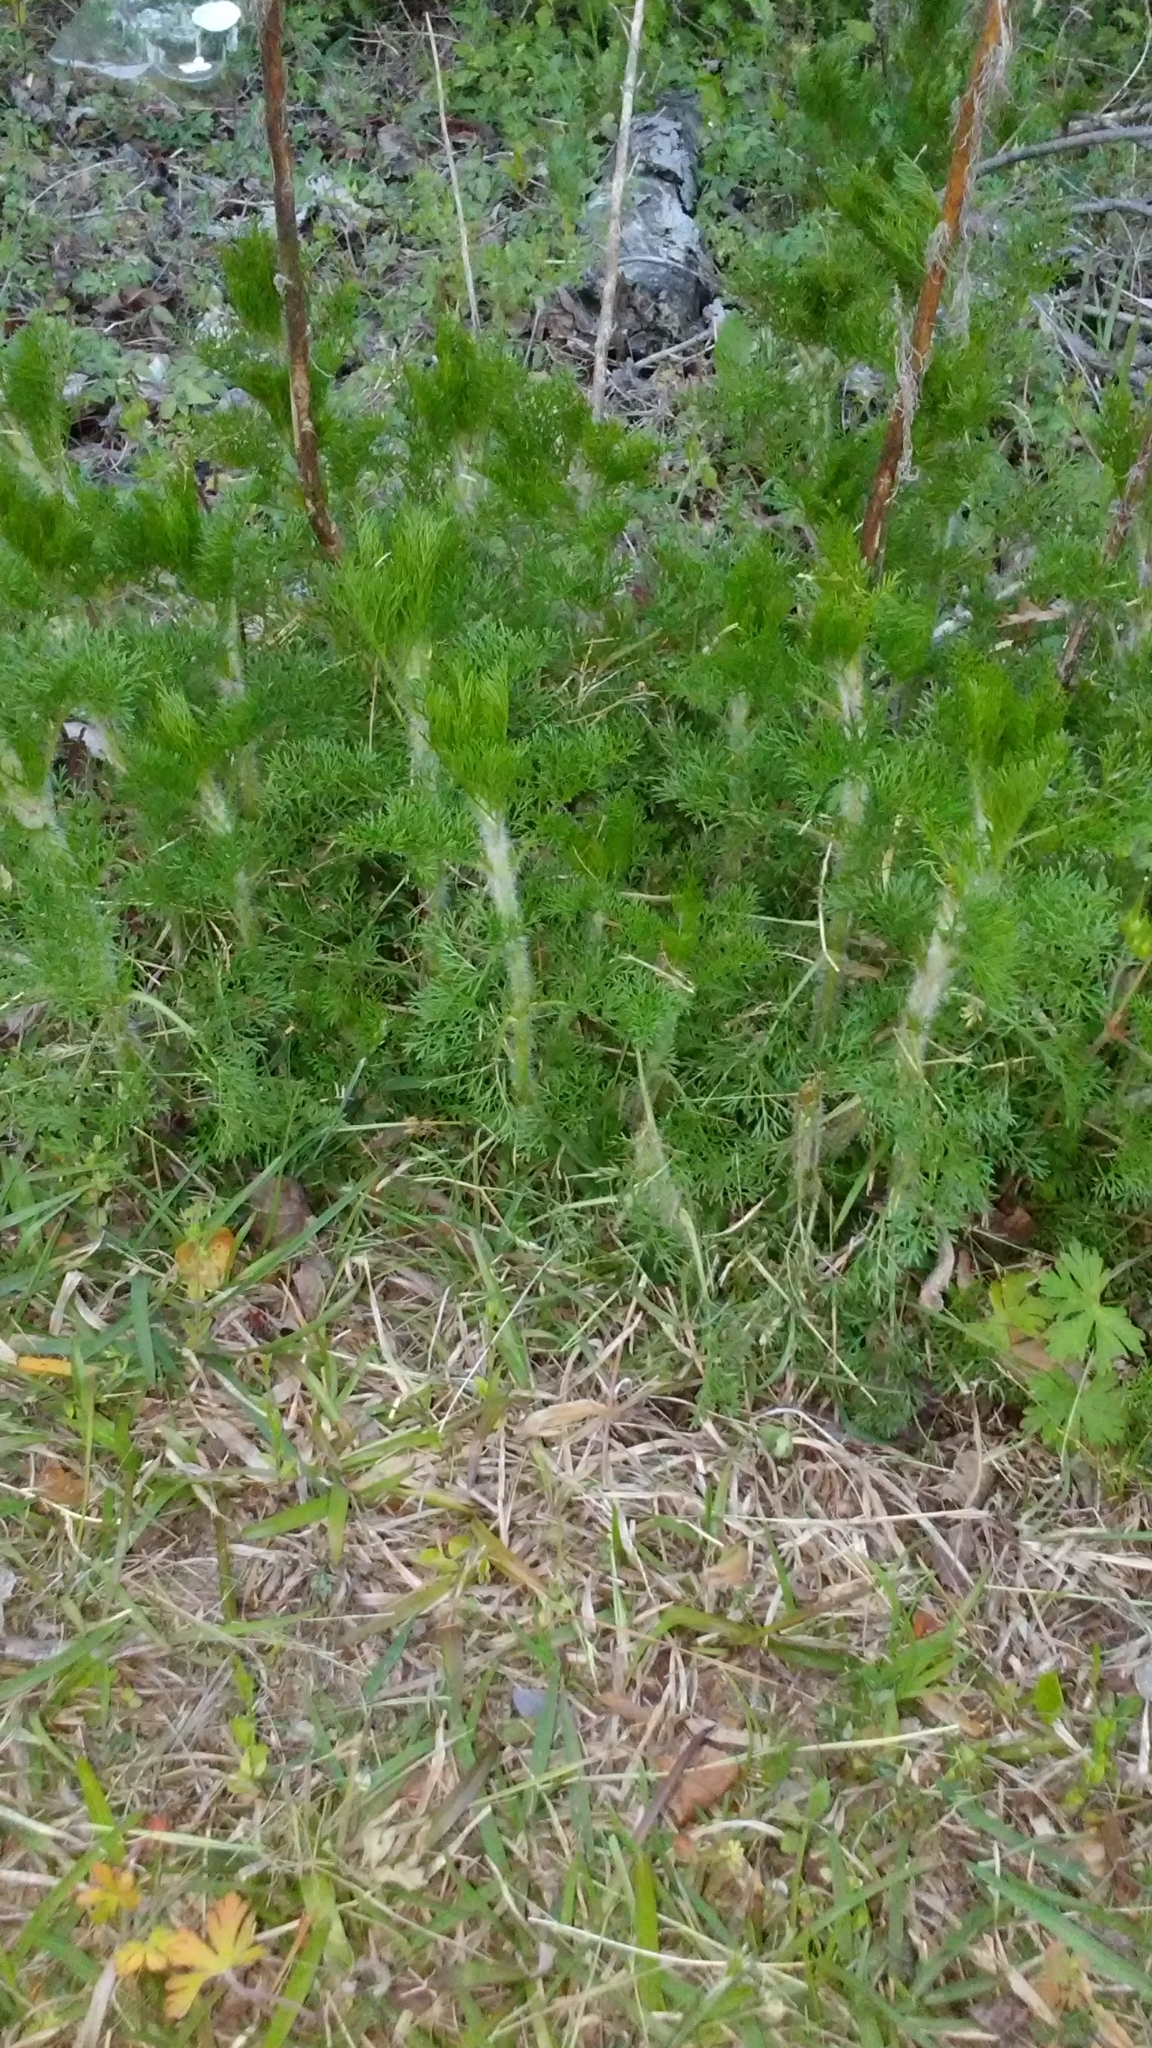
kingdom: Plantae
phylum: Tracheophyta
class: Magnoliopsida
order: Asterales
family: Asteraceae
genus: Eupatorium
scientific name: Eupatorium capillifolium
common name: Dog-fennel
